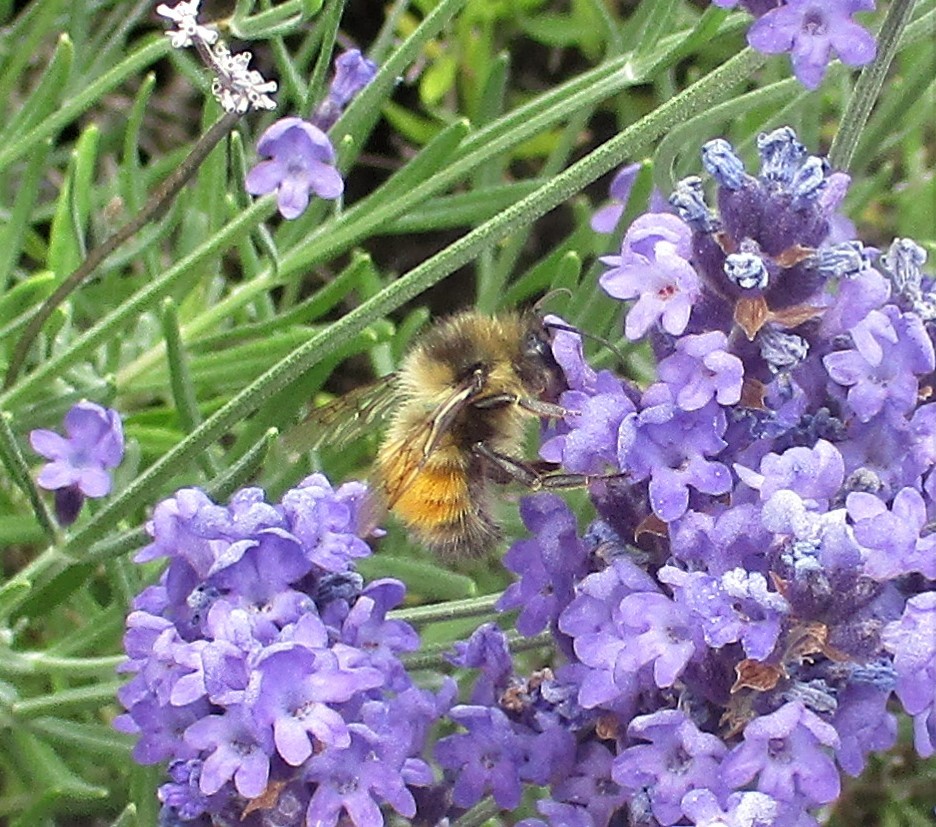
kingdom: Animalia
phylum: Arthropoda
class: Insecta
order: Hymenoptera
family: Apidae
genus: Bombus
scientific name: Bombus melanopygus
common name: Black tail bumble bee
